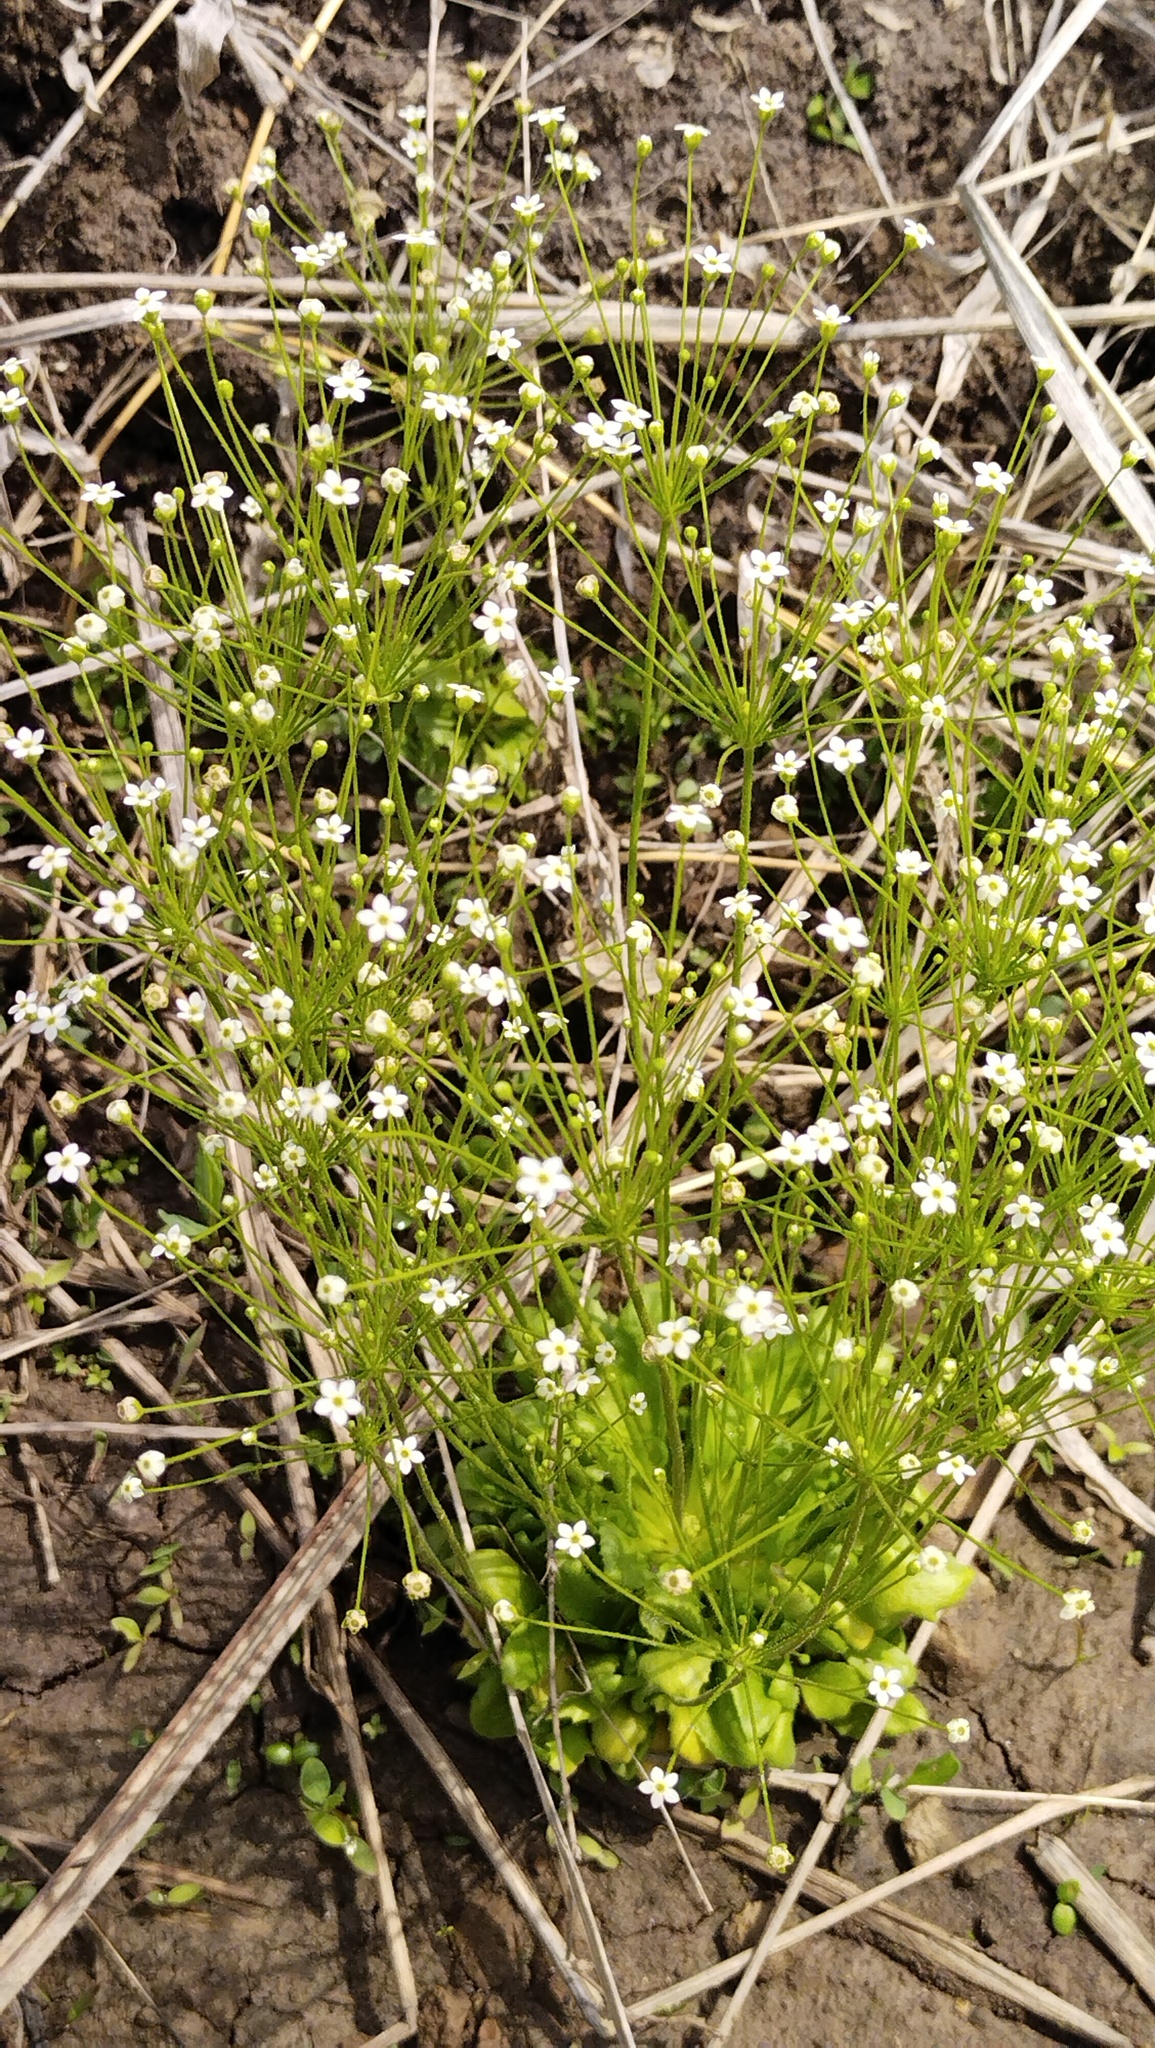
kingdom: Plantae
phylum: Tracheophyta
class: Magnoliopsida
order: Ericales
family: Primulaceae
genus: Androsace
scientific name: Androsace filiformis
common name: Filiform rock jasmine
